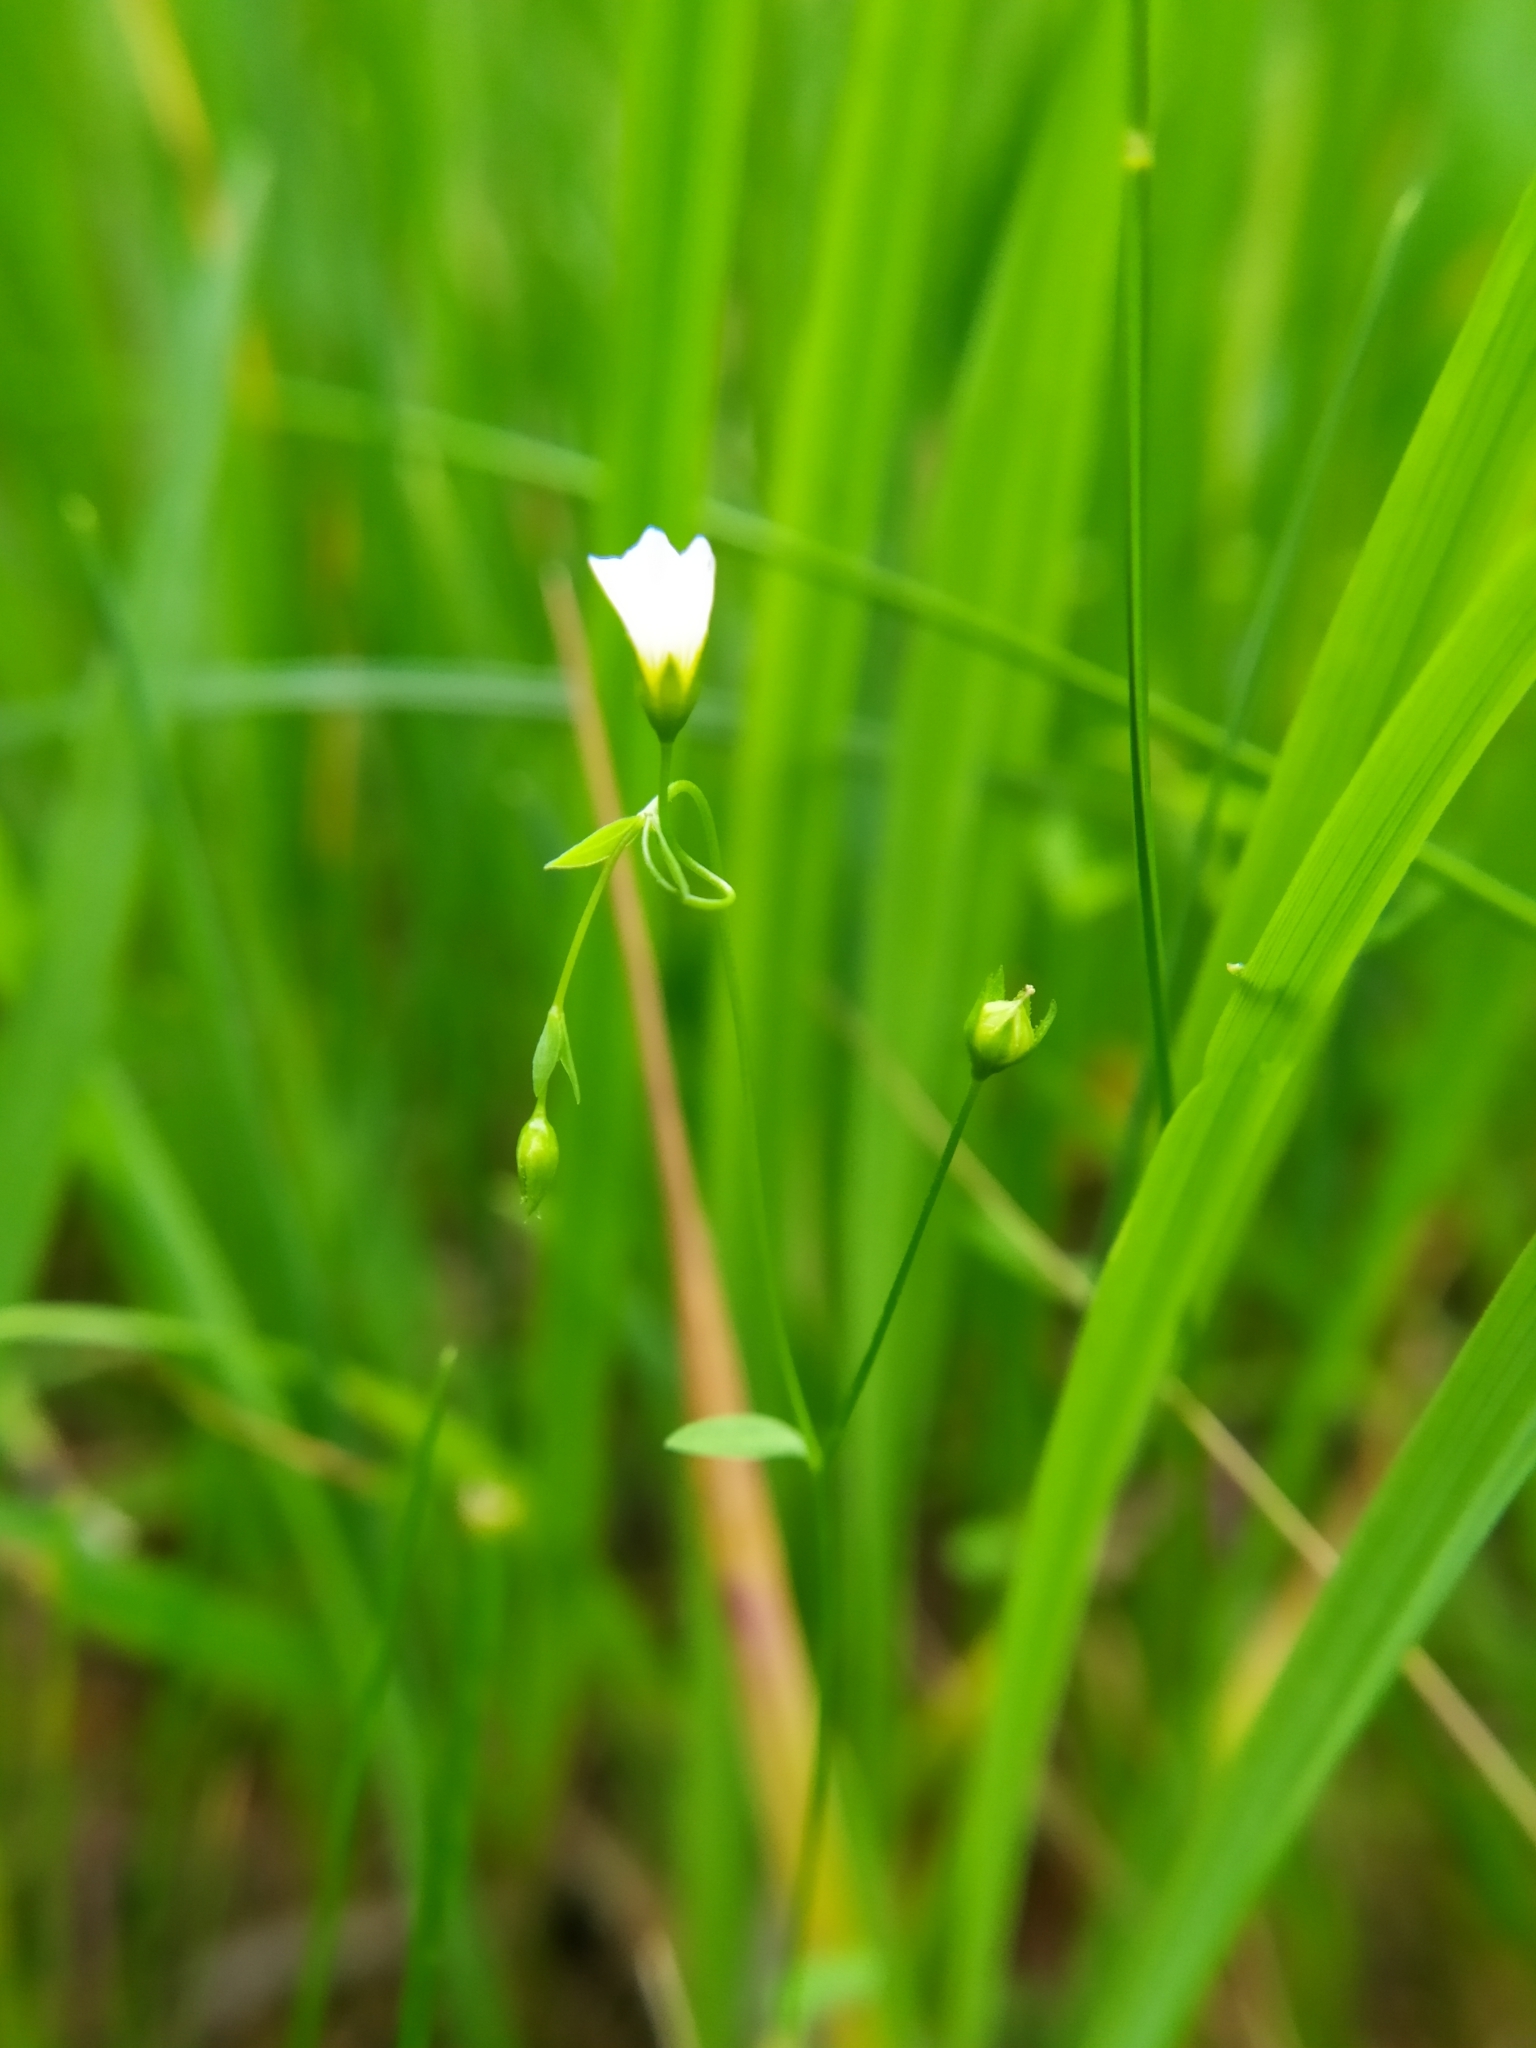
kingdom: Plantae
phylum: Tracheophyta
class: Magnoliopsida
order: Malpighiales
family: Linaceae
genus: Linum
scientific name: Linum catharticum
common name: Fairy flax
